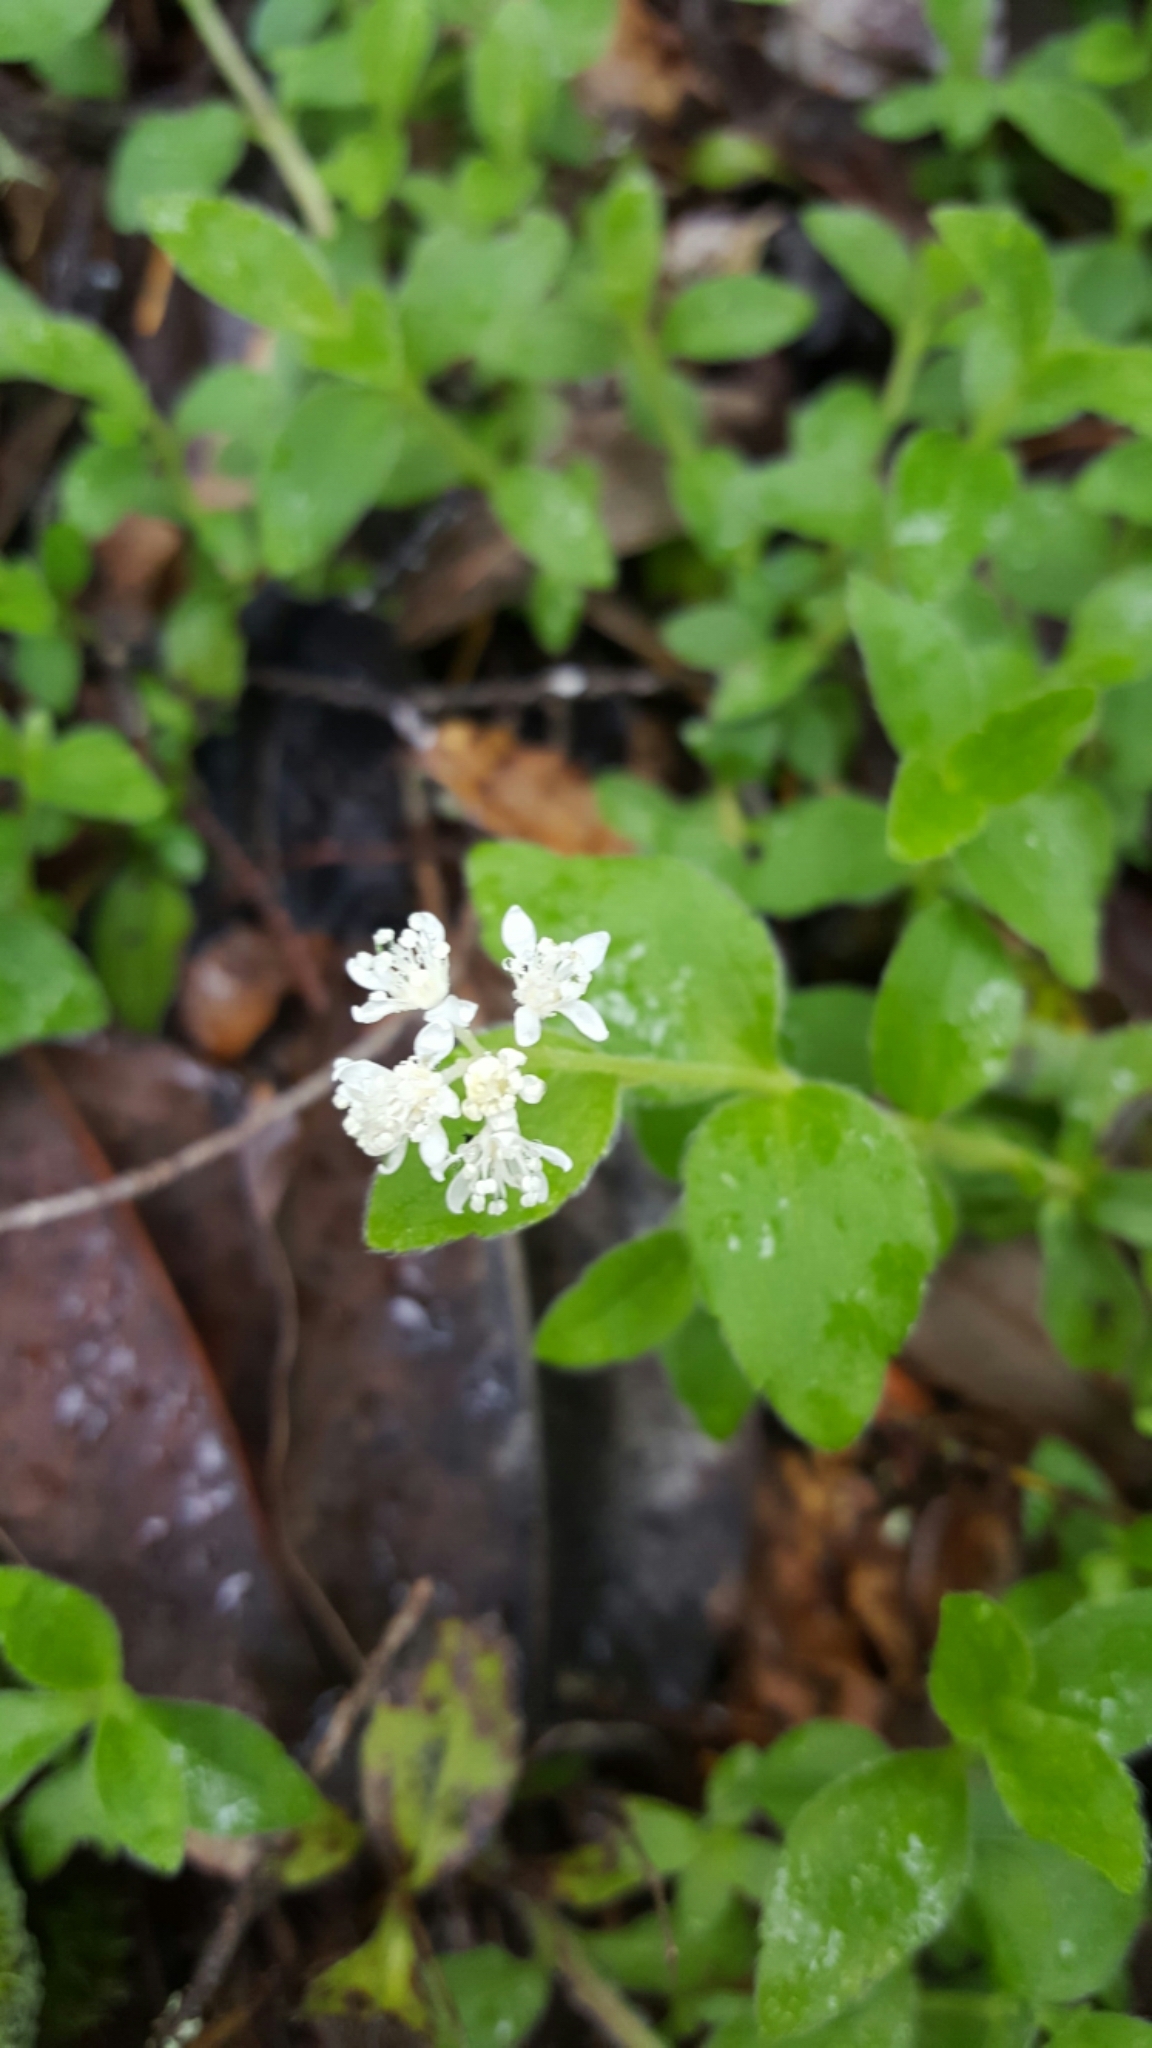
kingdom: Plantae
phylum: Tracheophyta
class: Magnoliopsida
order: Cornales
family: Hydrangeaceae
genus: Whipplea
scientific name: Whipplea modesta
